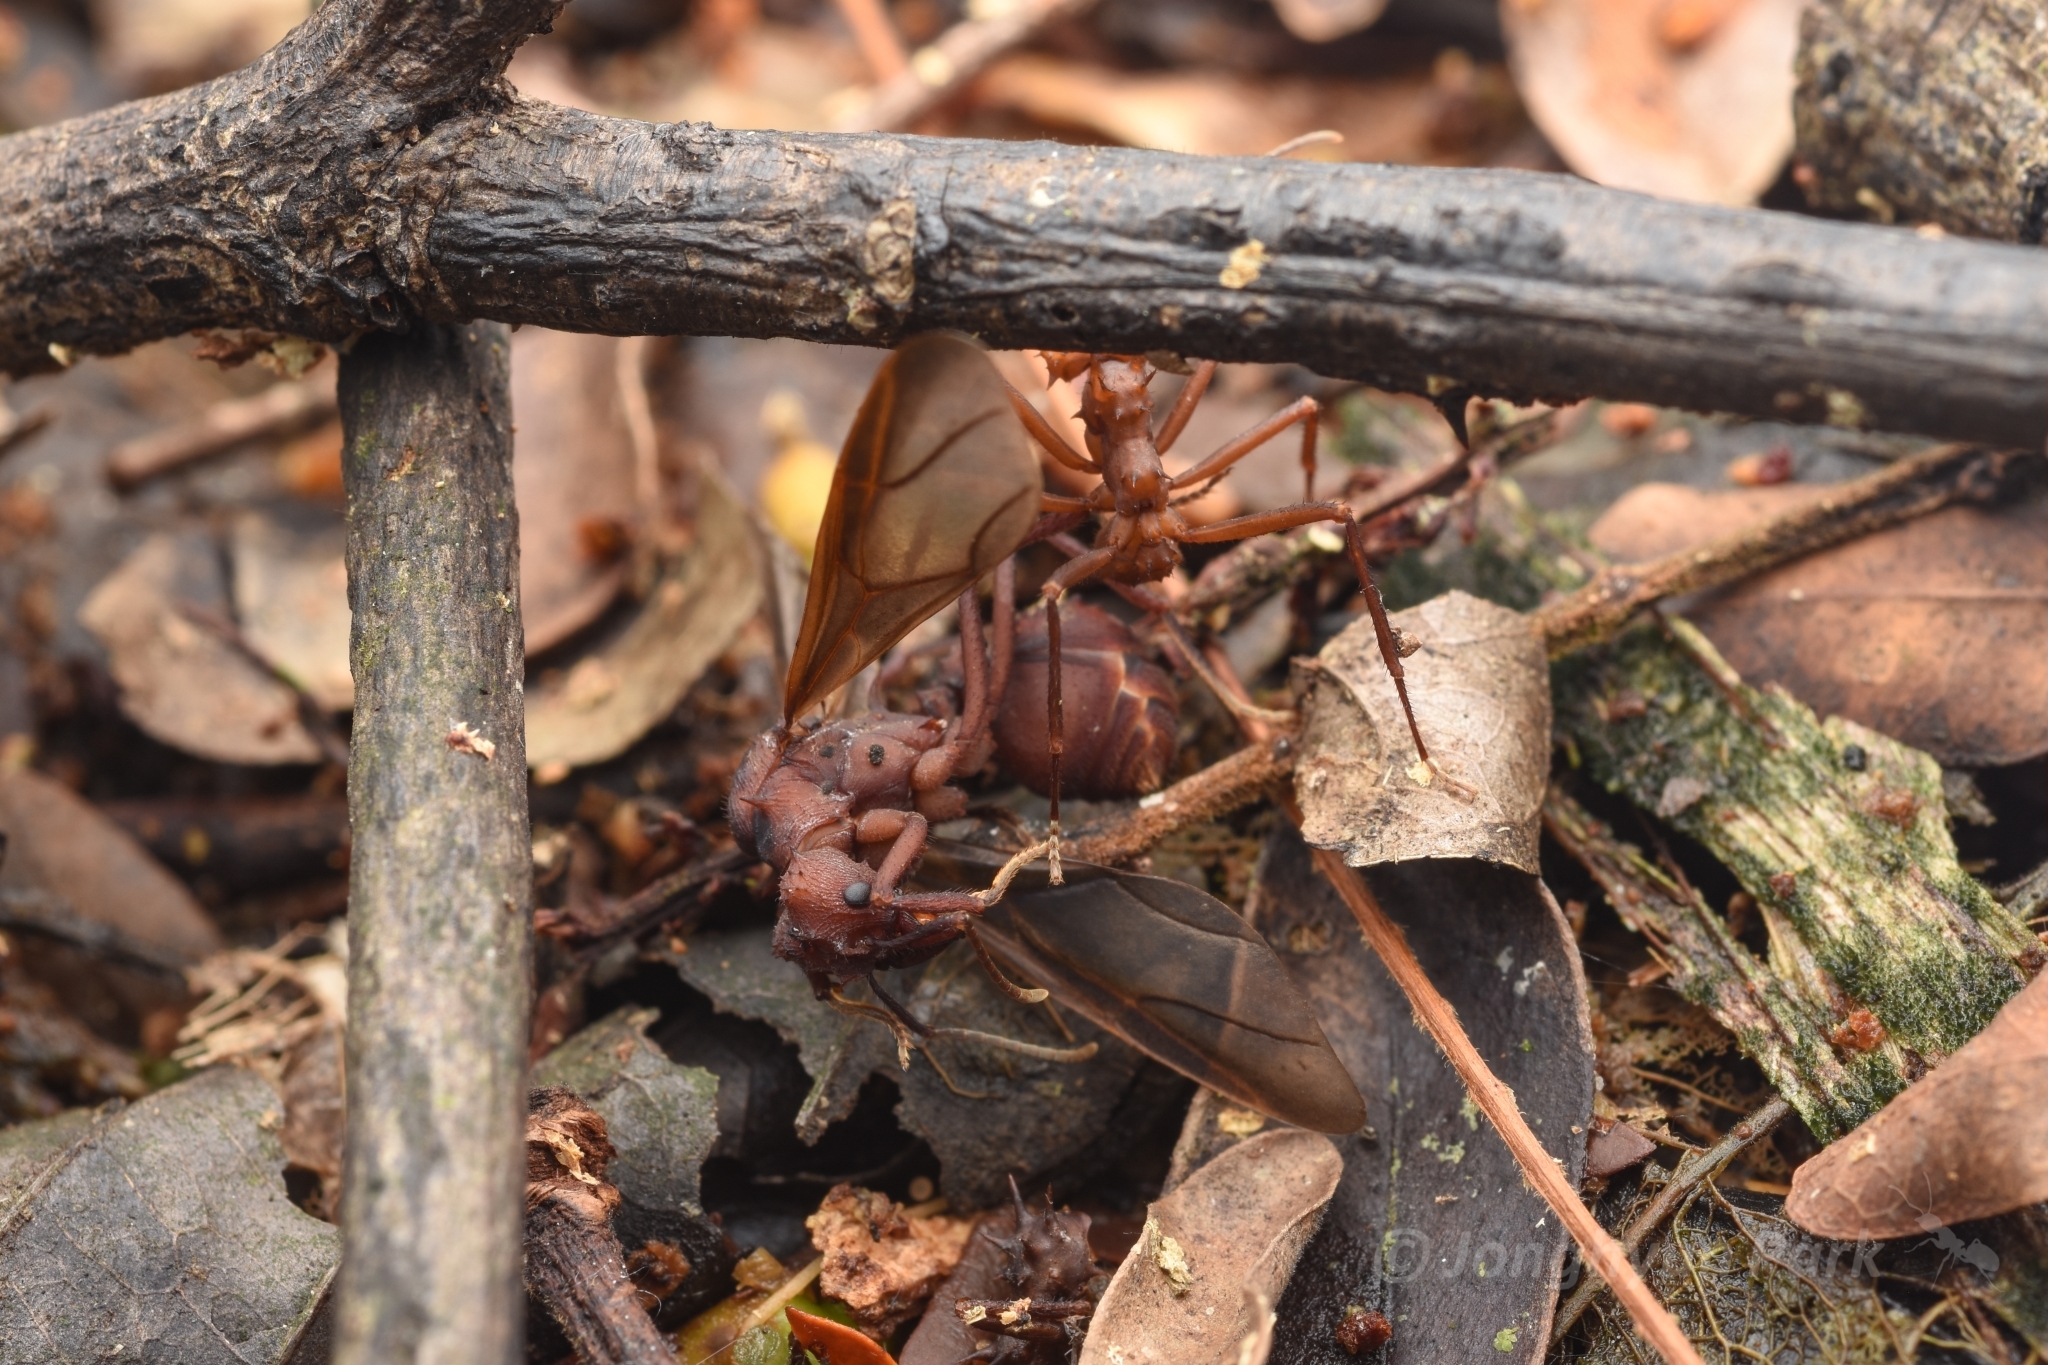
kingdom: Animalia
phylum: Arthropoda
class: Insecta
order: Hymenoptera
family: Formicidae
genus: Acromyrmex
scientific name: Acromyrmex octospinosus
